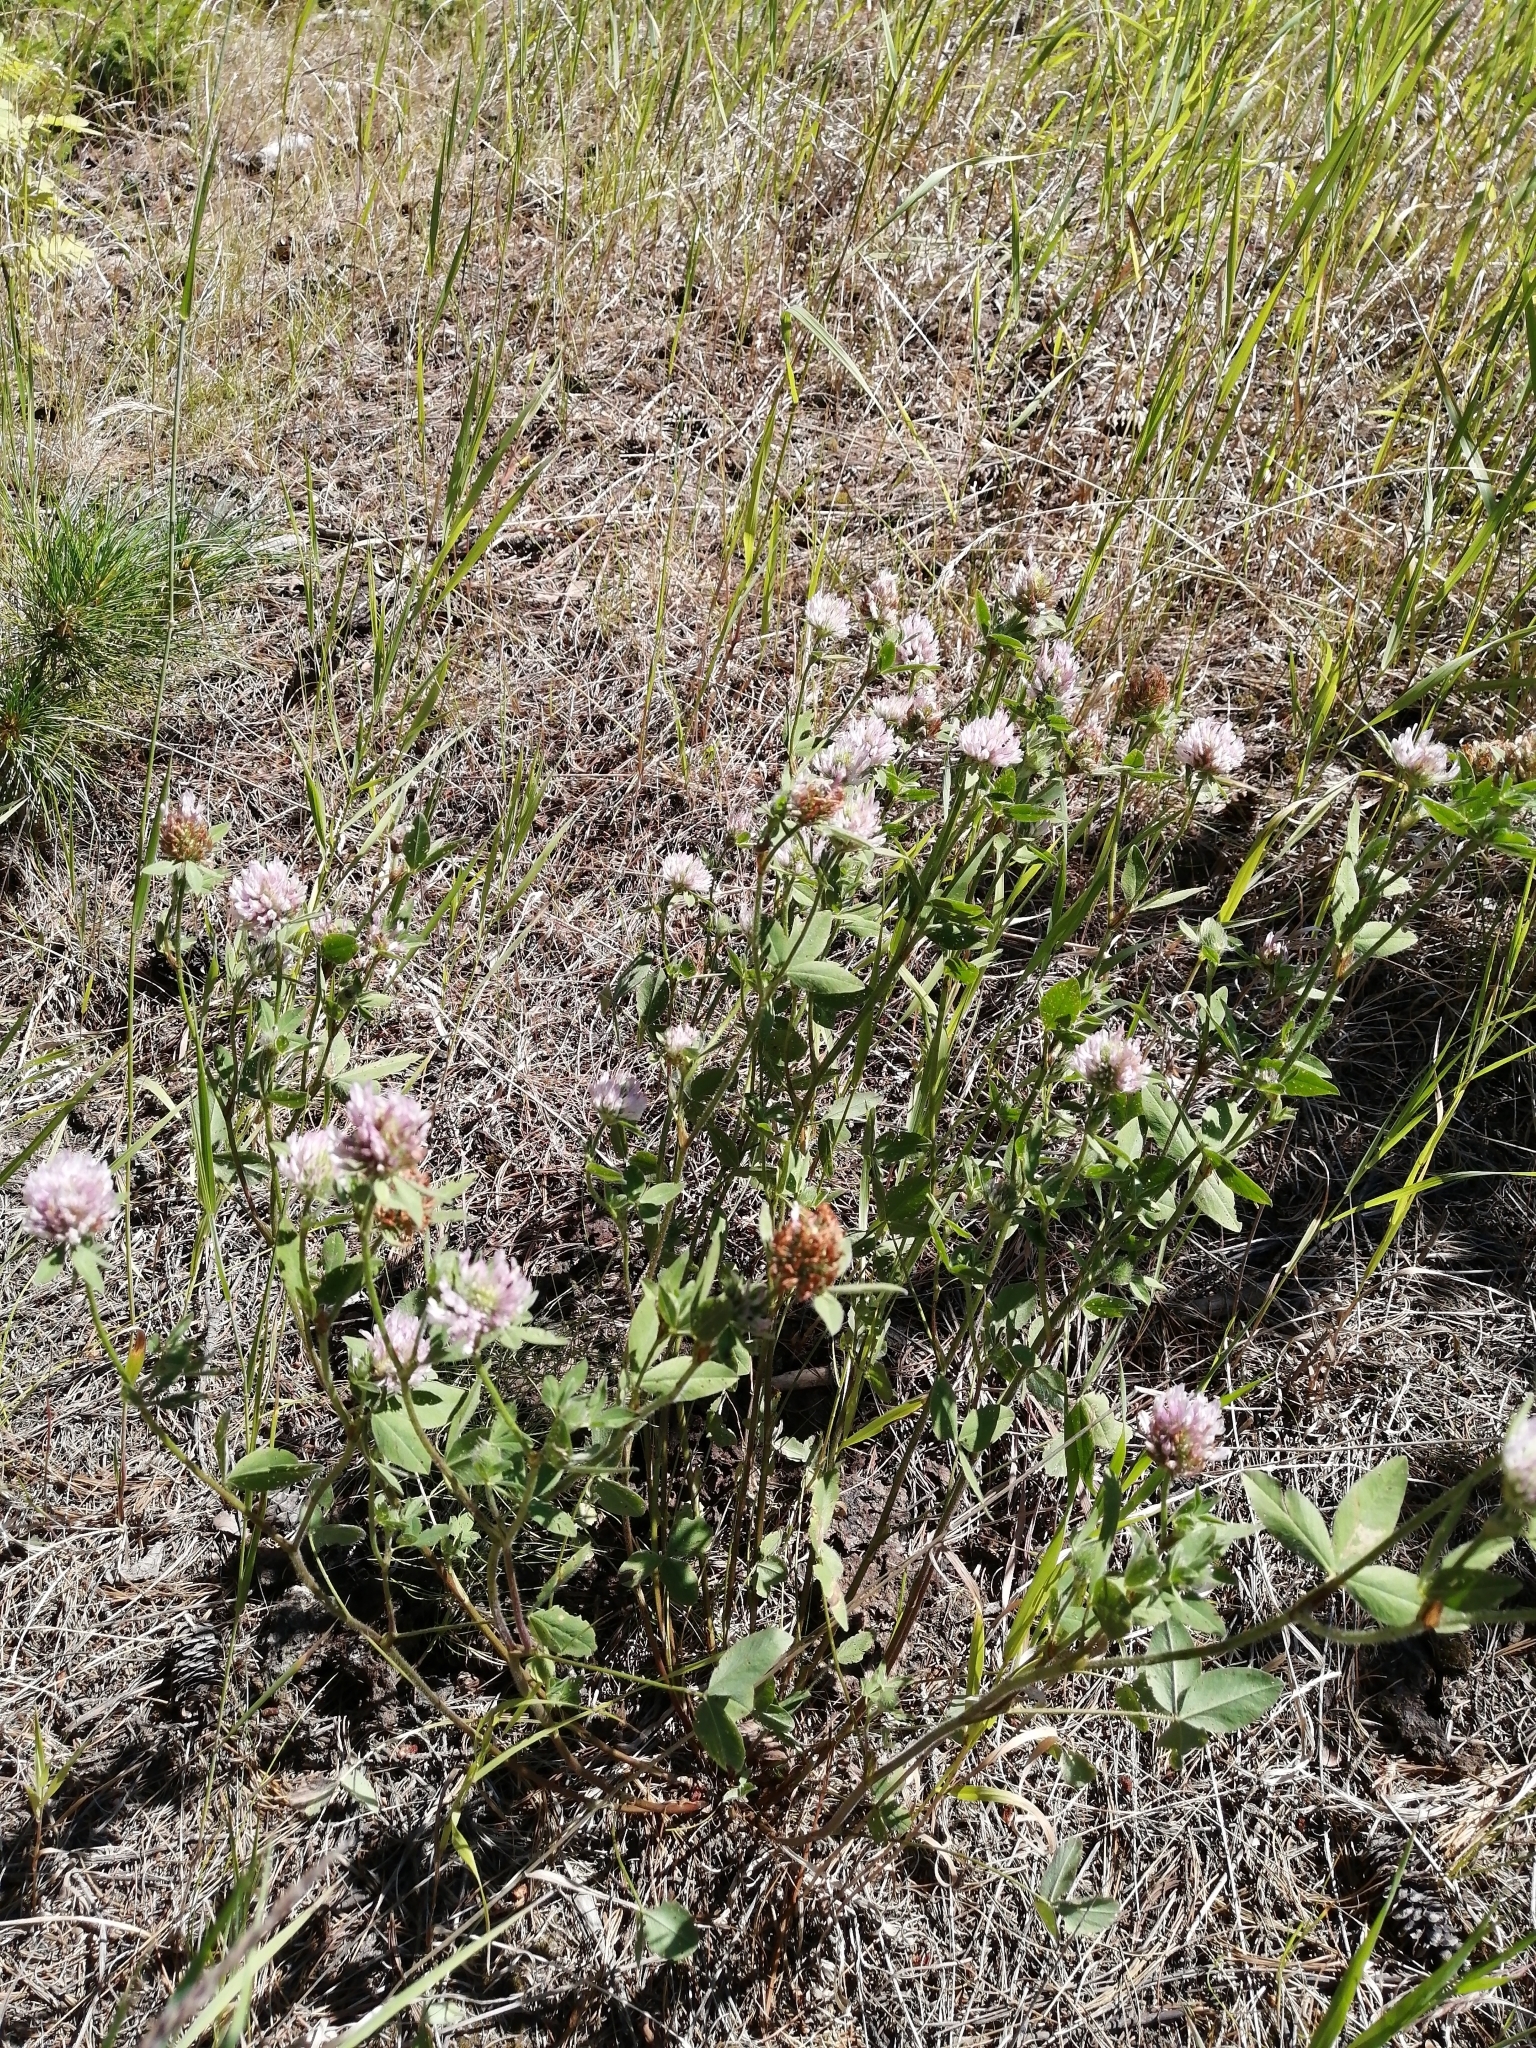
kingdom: Plantae
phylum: Tracheophyta
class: Magnoliopsida
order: Fabales
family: Fabaceae
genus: Trifolium
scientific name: Trifolium hybridum
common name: Alsike clover
